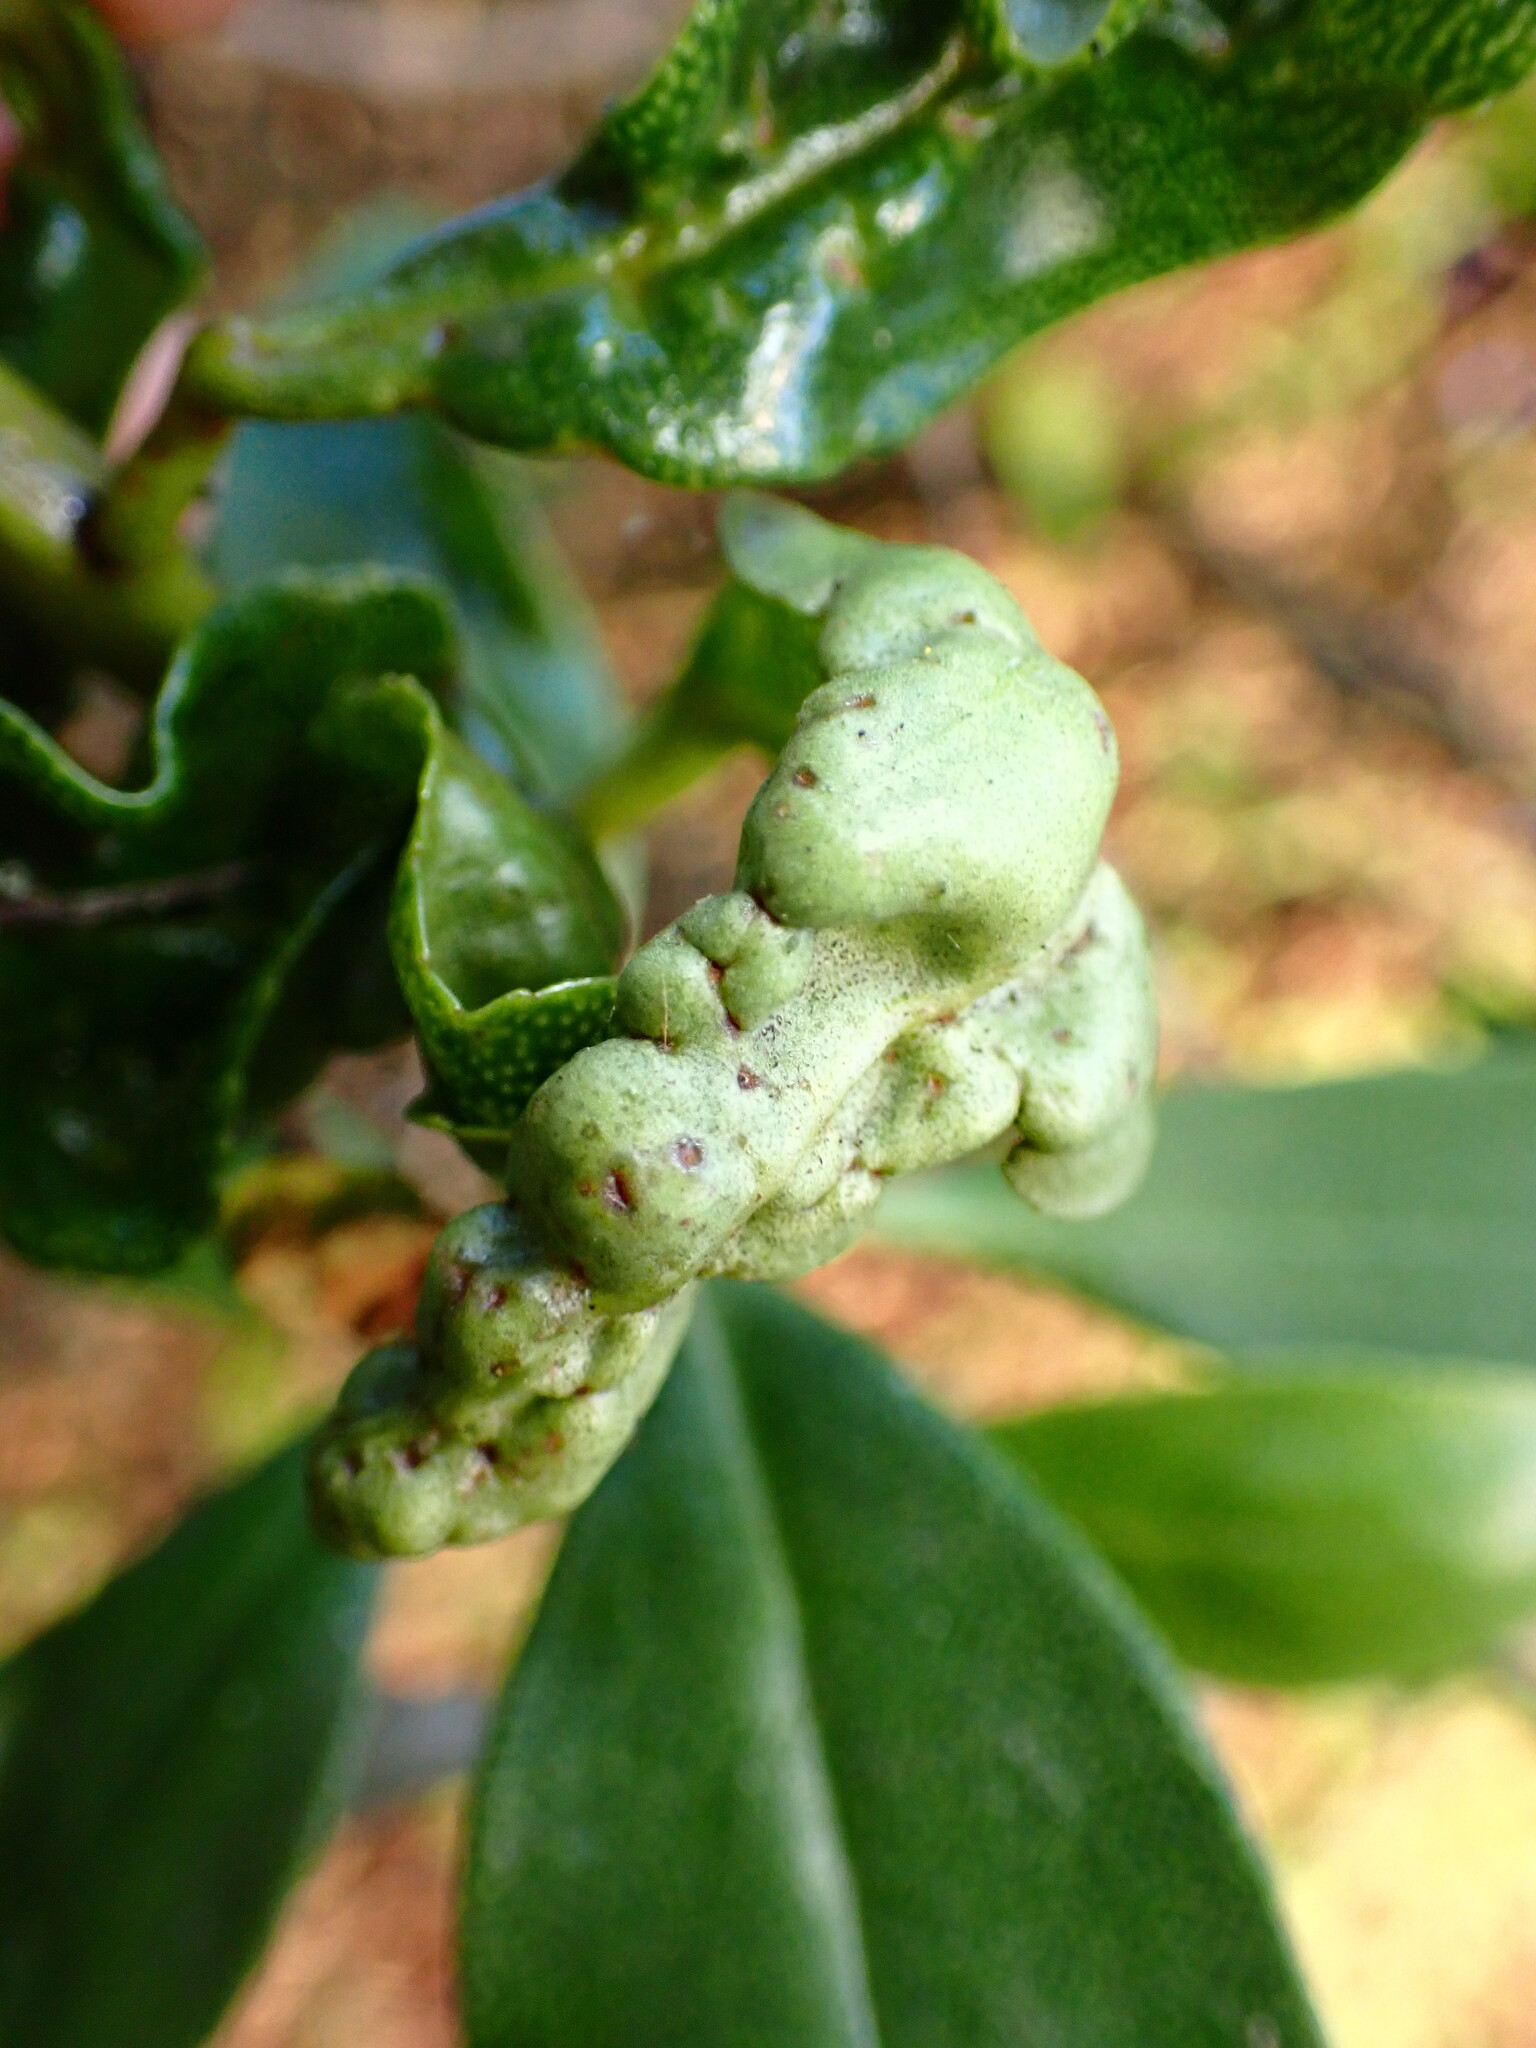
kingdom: Animalia
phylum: Arthropoda
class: Insecta
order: Thysanoptera
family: Phlaeothripidae
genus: Klambothrips
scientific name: Klambothrips myopori
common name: Myoporum thrips
